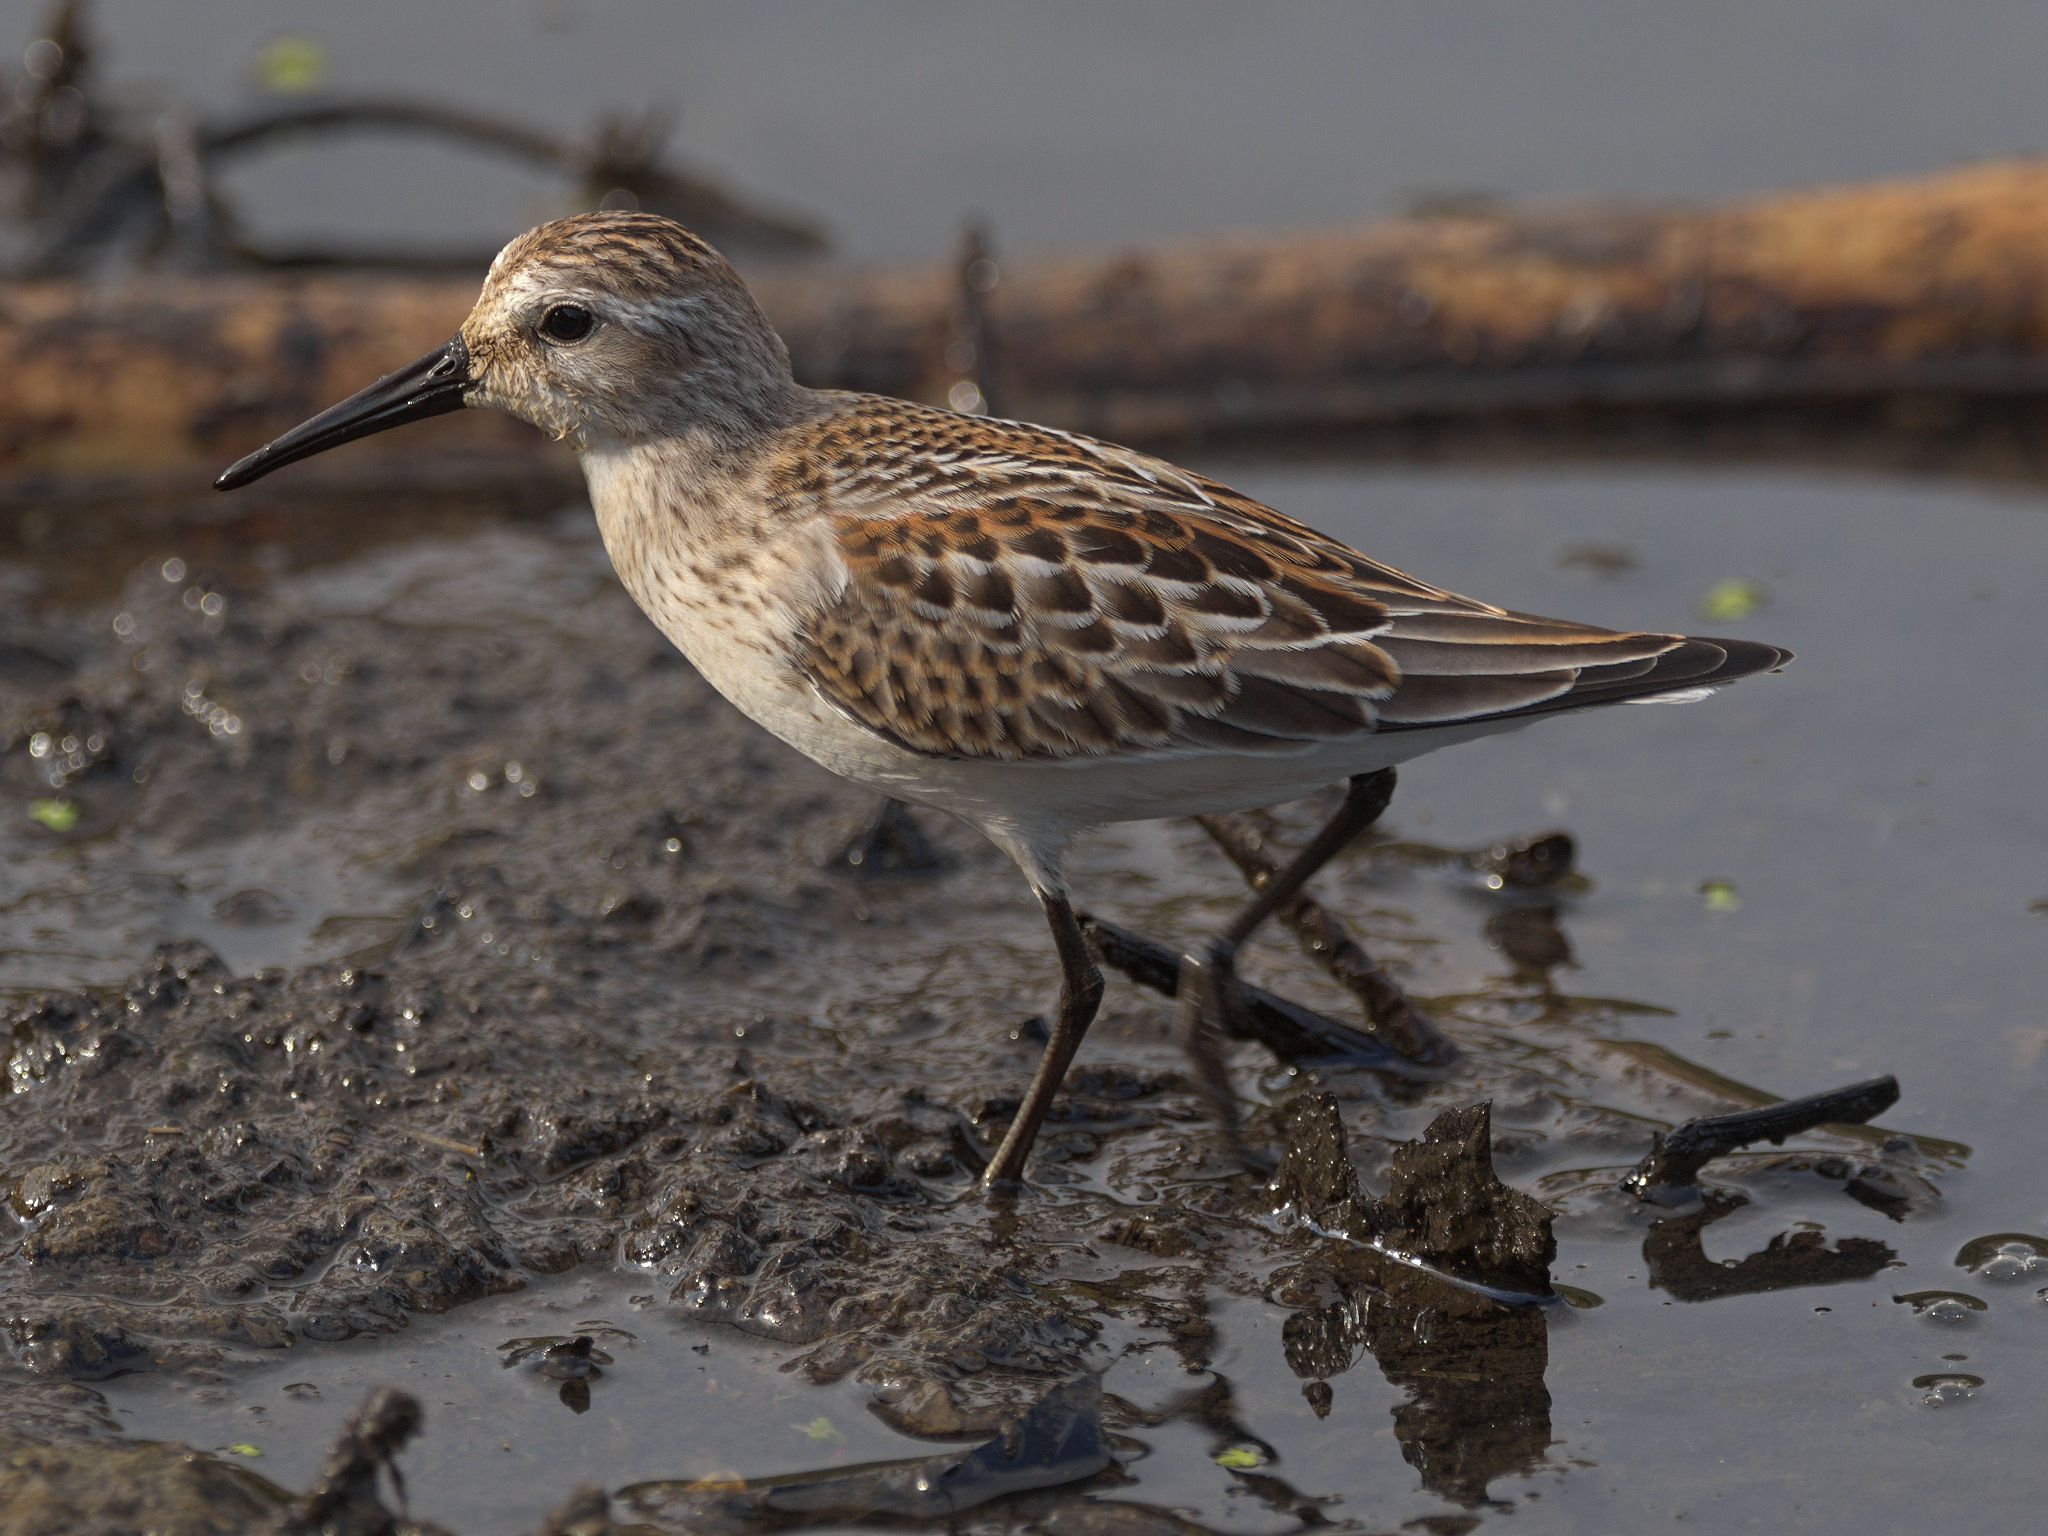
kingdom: Animalia
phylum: Chordata
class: Aves
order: Charadriiformes
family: Scolopacidae
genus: Calidris
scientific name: Calidris mauri
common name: Western sandpiper
